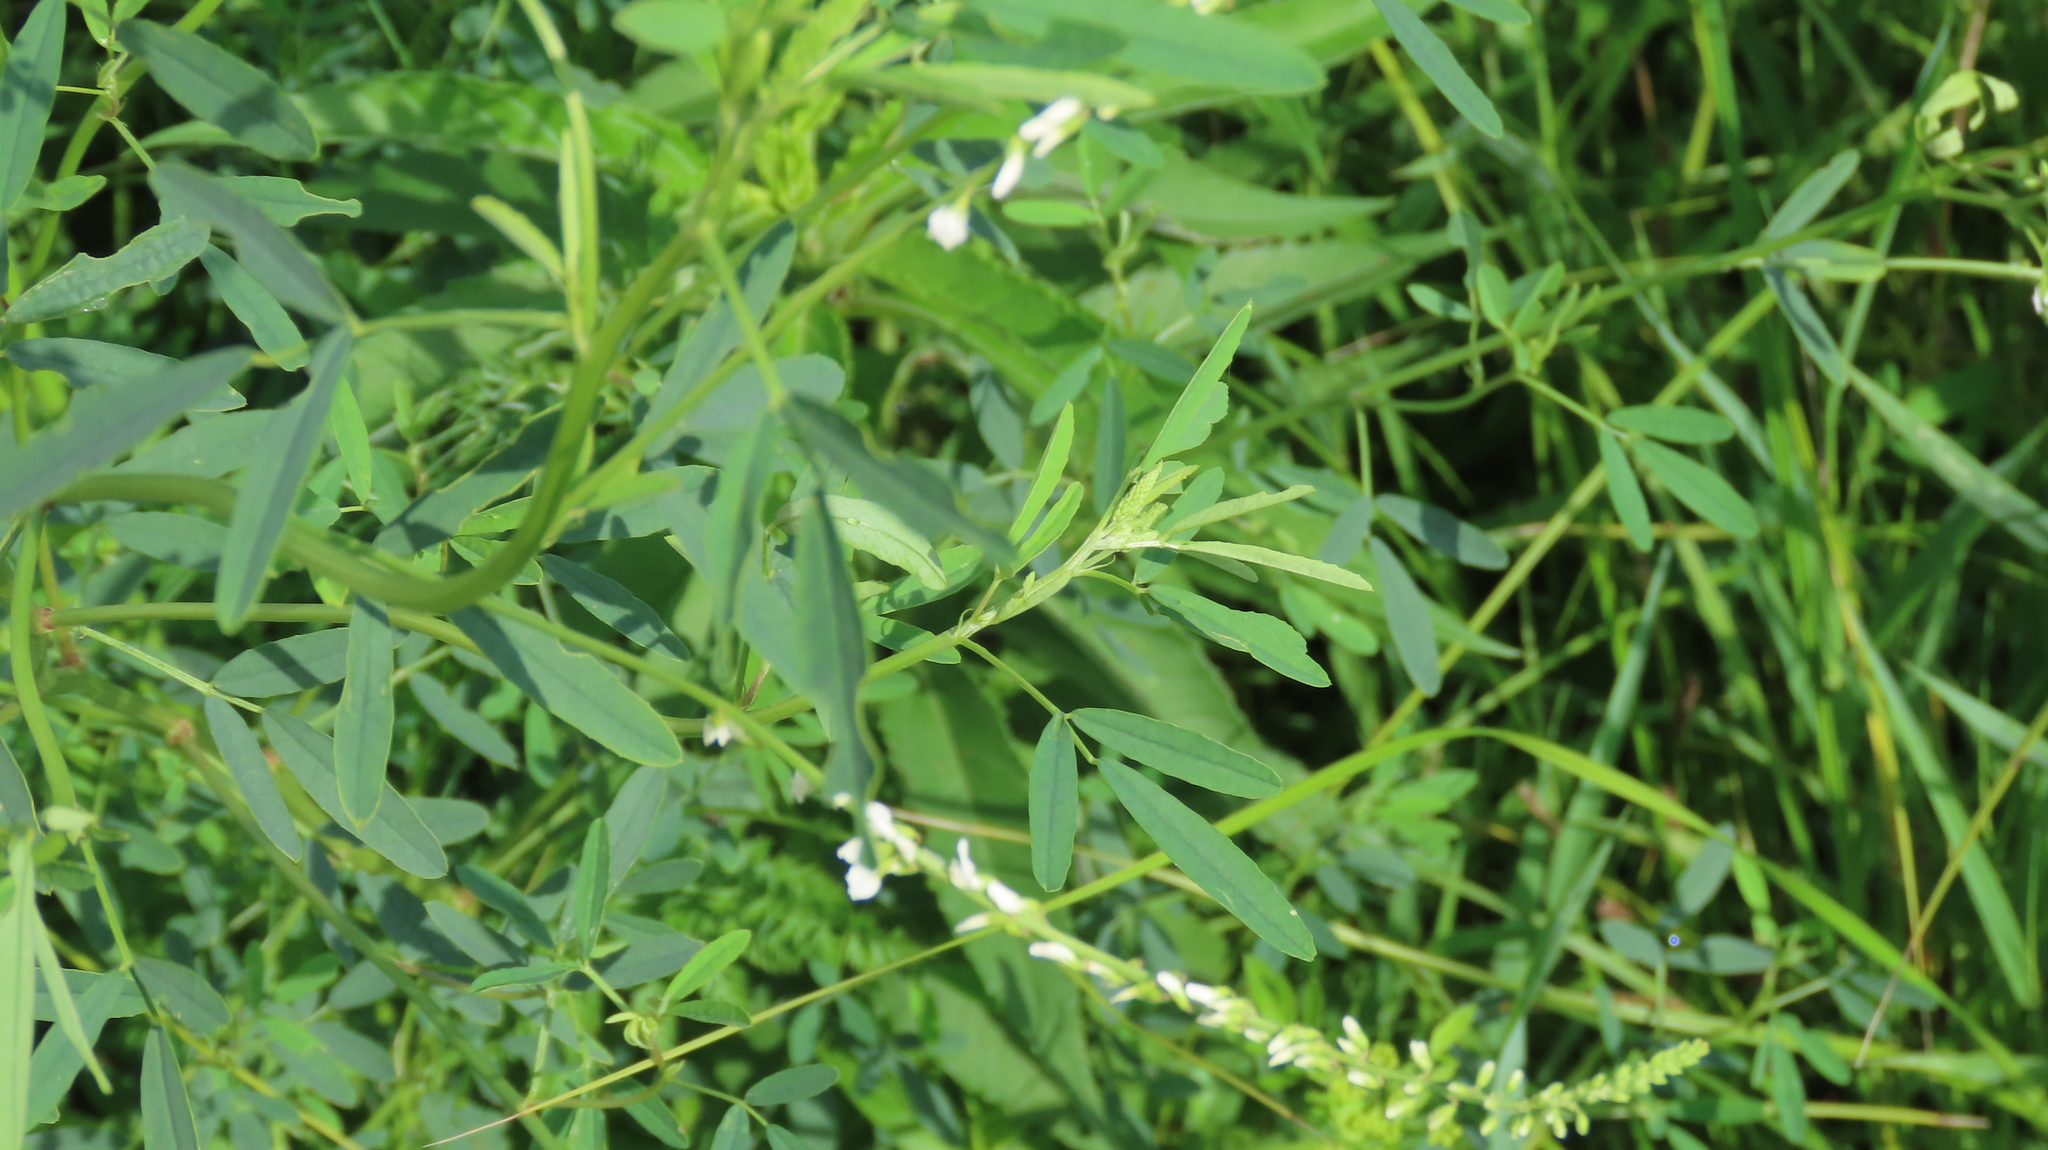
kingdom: Plantae
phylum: Tracheophyta
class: Magnoliopsida
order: Fabales
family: Fabaceae
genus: Melilotus
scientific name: Melilotus albus
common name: White melilot
